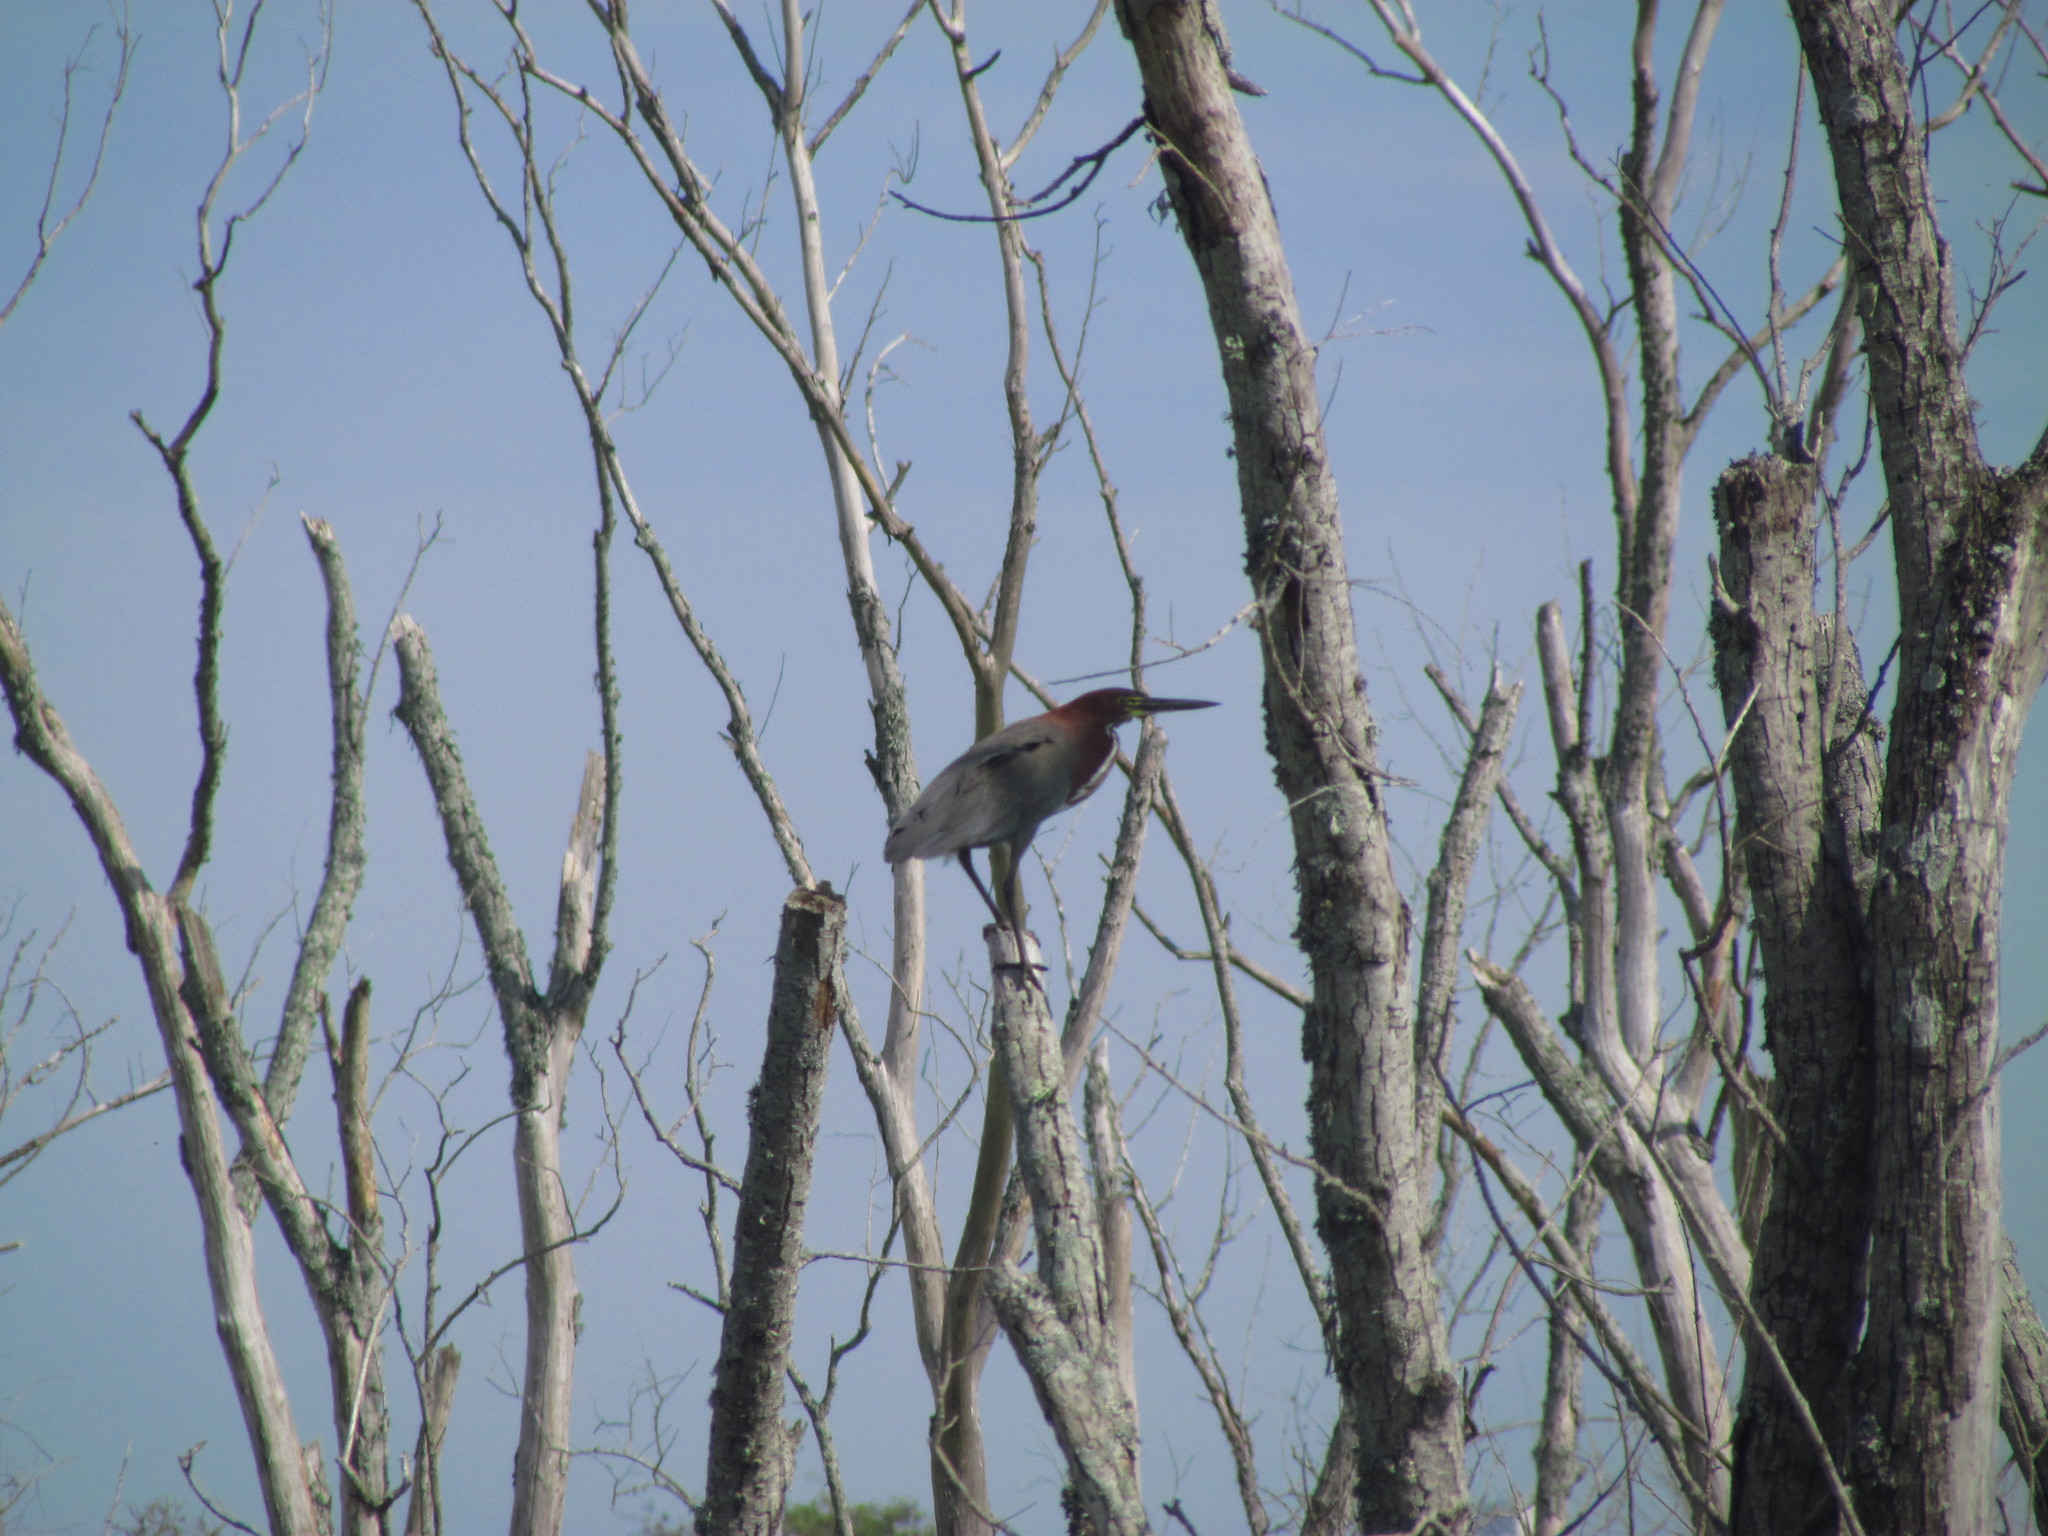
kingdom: Animalia
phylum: Chordata
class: Aves
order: Pelecaniformes
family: Ardeidae
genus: Tigrisoma
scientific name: Tigrisoma lineatum
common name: Rufescent tiger-heron
